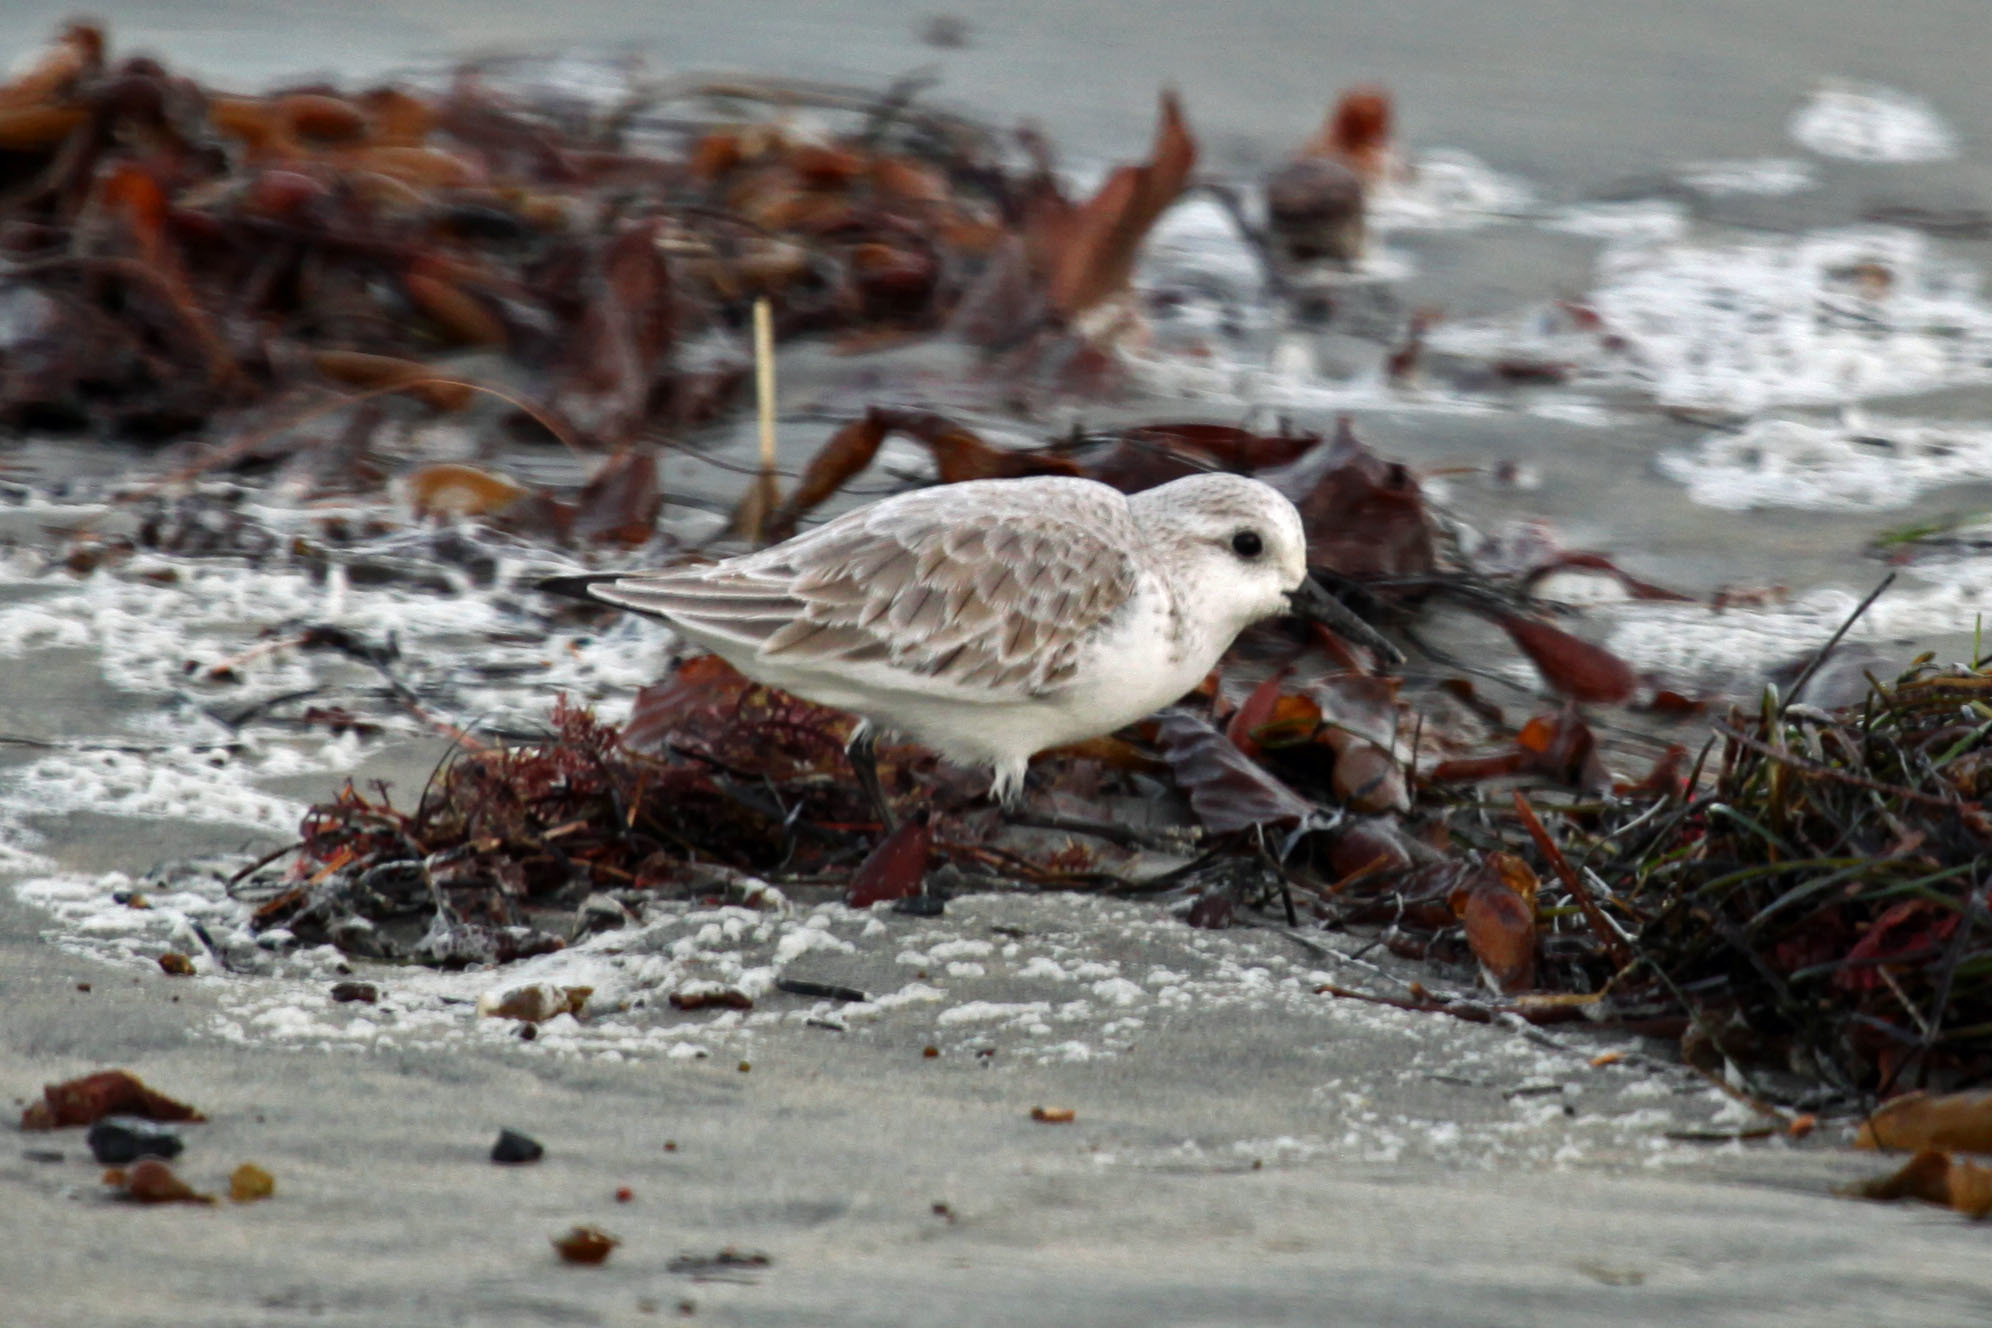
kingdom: Animalia
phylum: Chordata
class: Aves
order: Charadriiformes
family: Scolopacidae
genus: Calidris
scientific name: Calidris alba
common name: Sanderling
